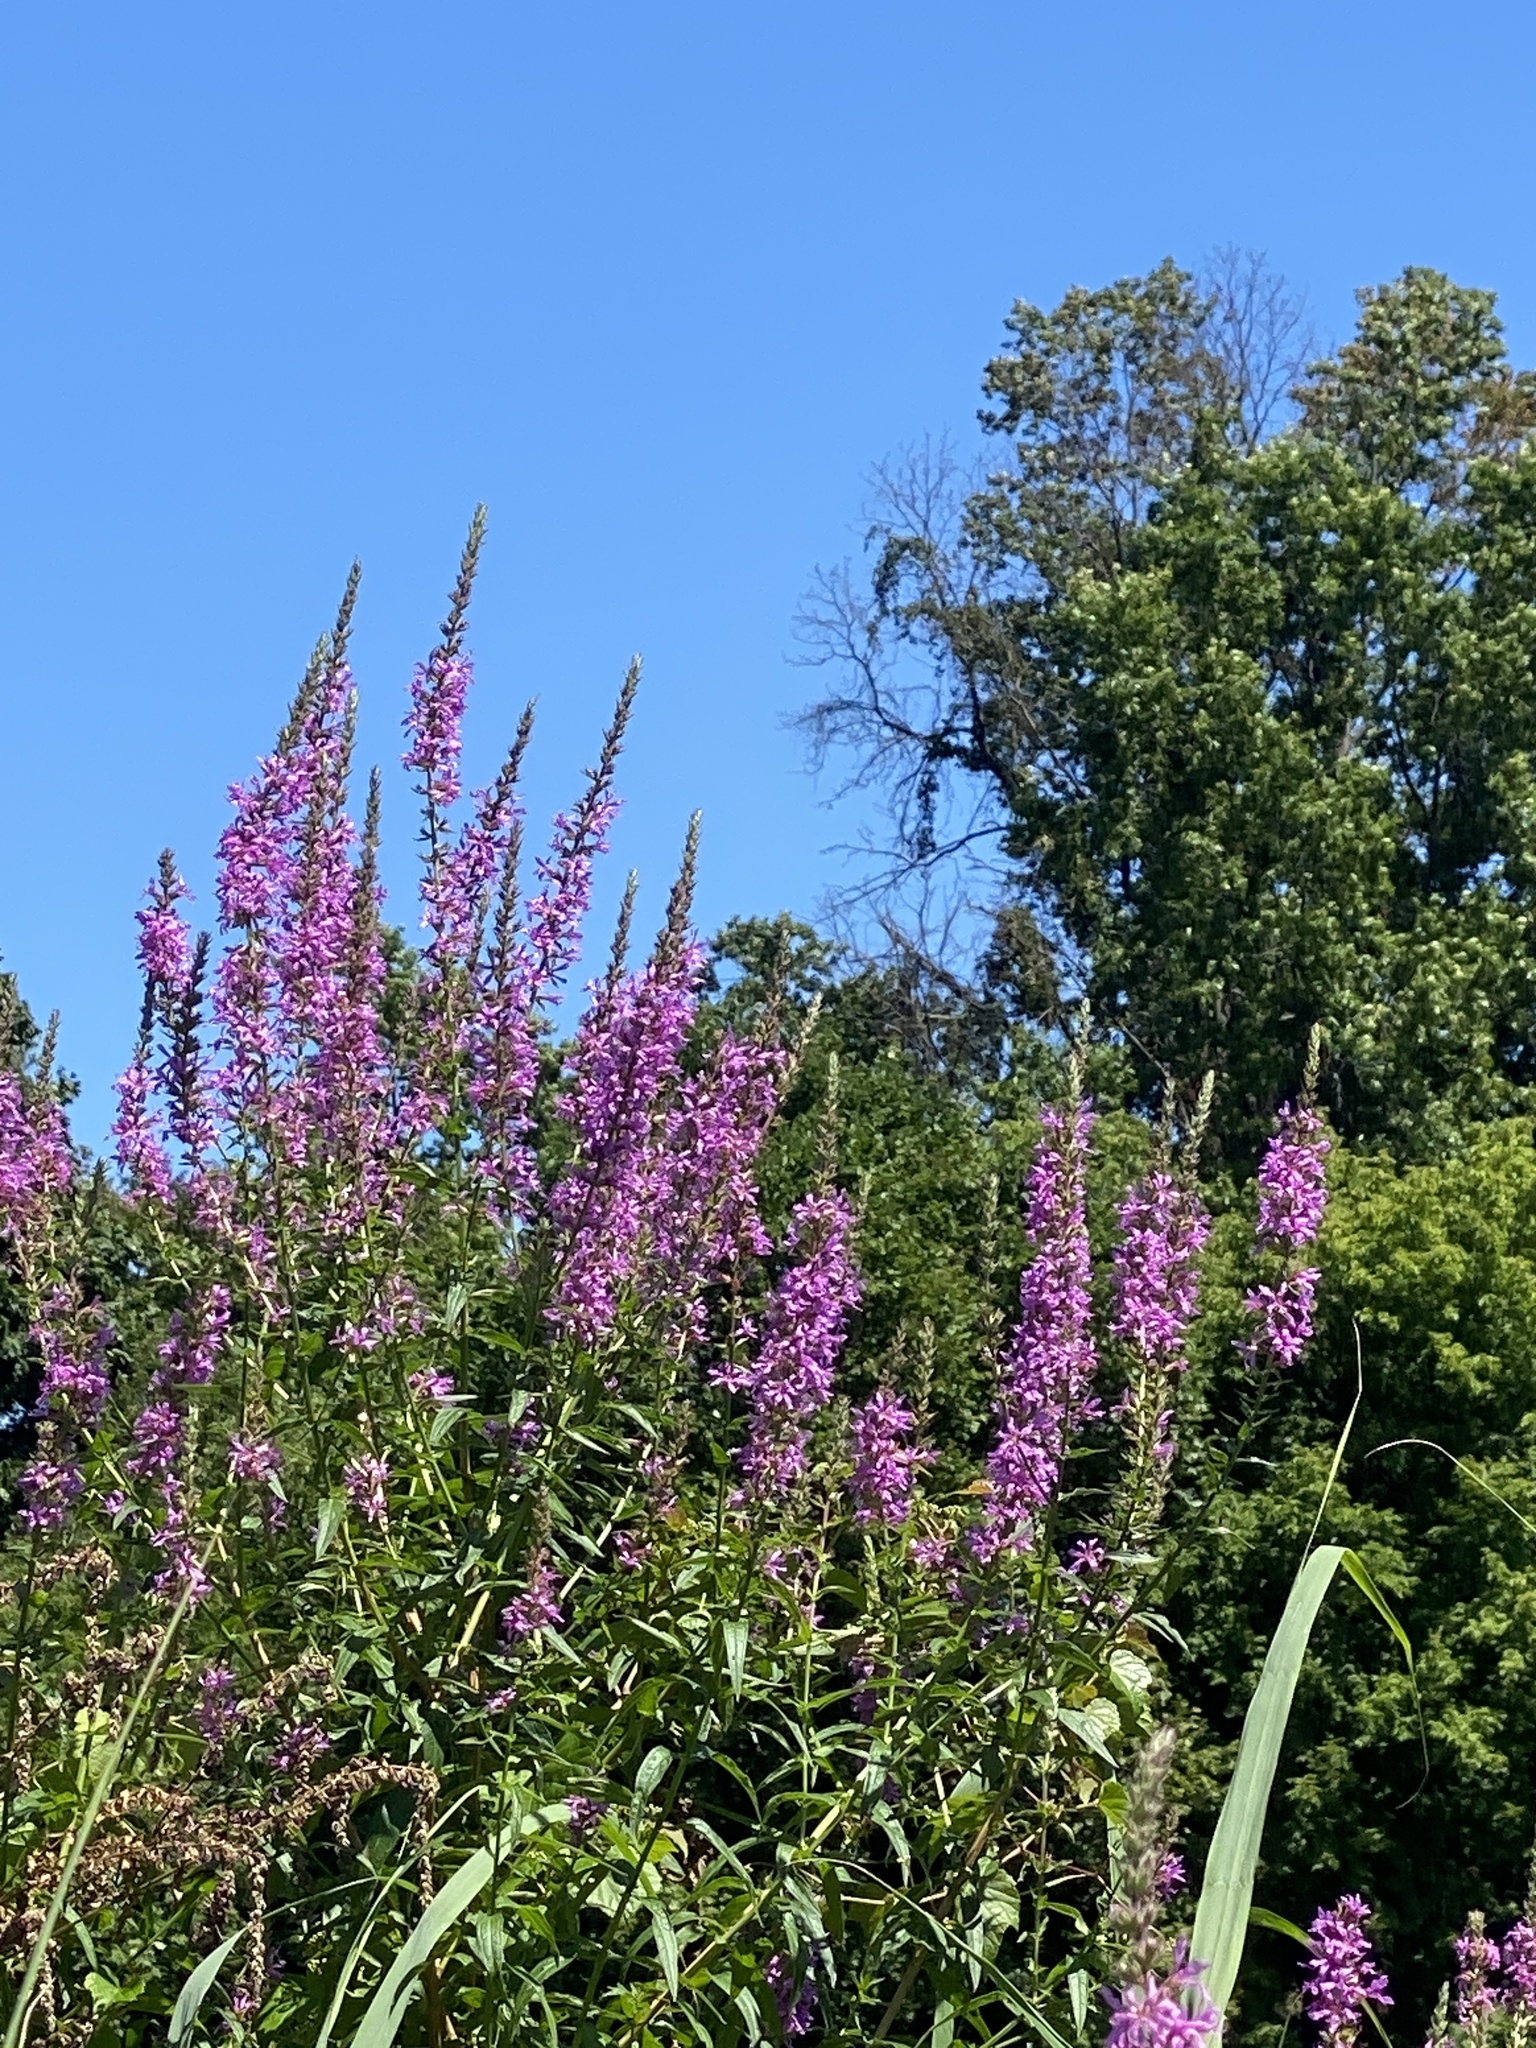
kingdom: Plantae
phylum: Tracheophyta
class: Magnoliopsida
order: Myrtales
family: Lythraceae
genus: Lythrum
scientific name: Lythrum salicaria
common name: Purple loosestrife
